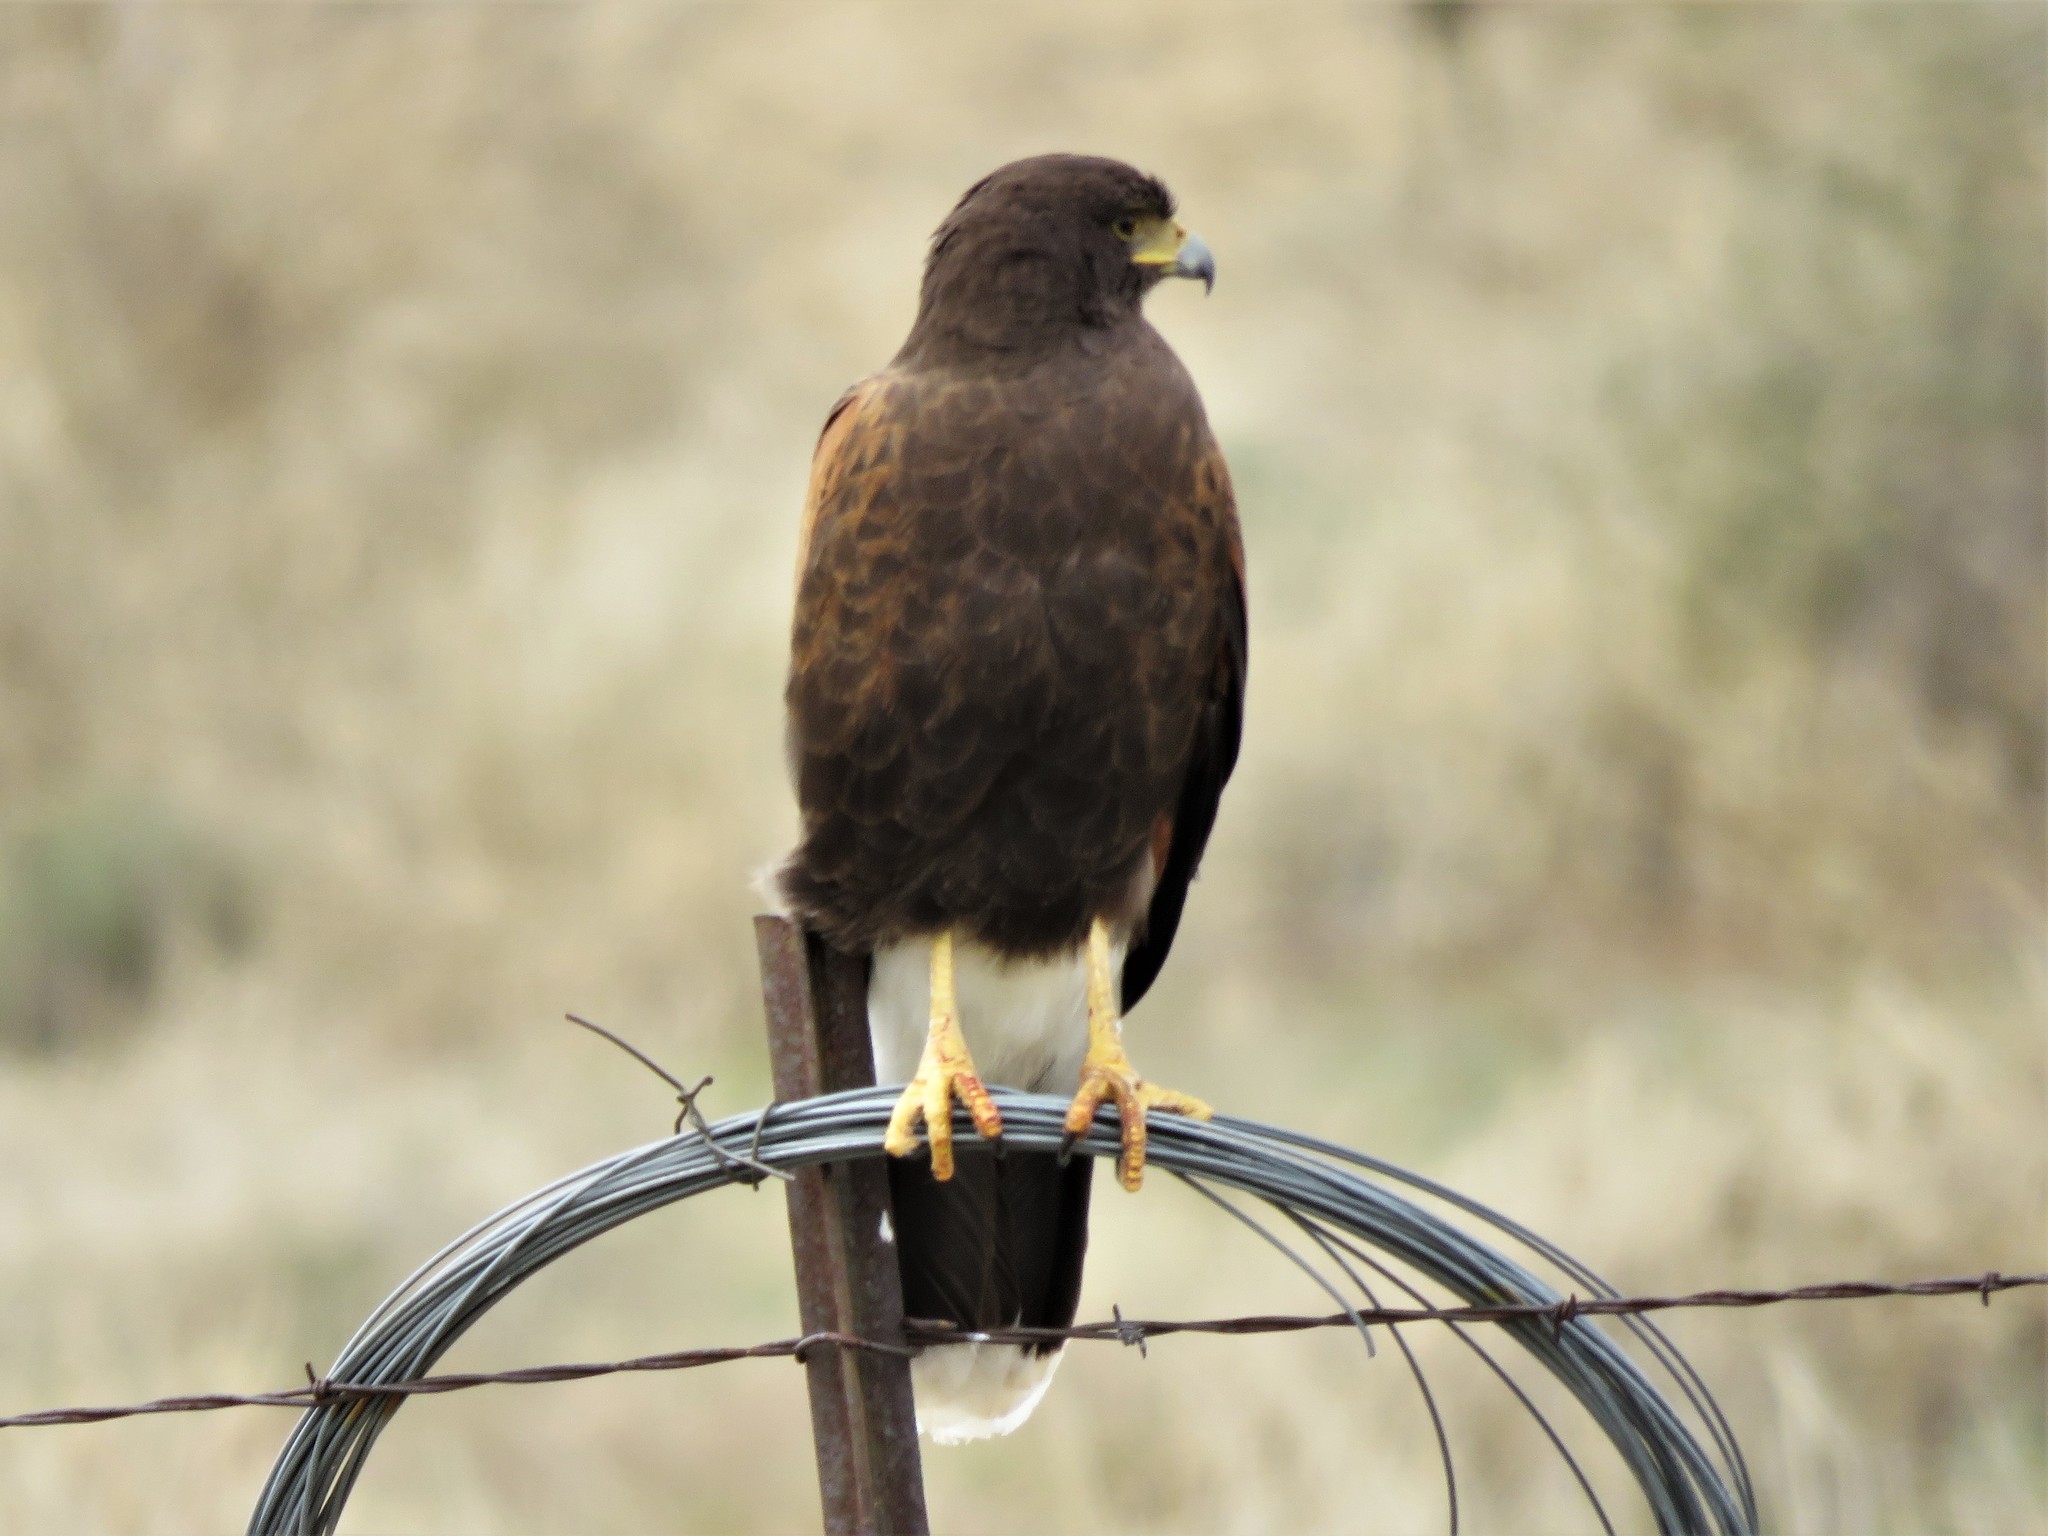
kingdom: Animalia
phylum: Chordata
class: Aves
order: Accipitriformes
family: Accipitridae
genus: Parabuteo
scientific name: Parabuteo unicinctus
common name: Harris's hawk
